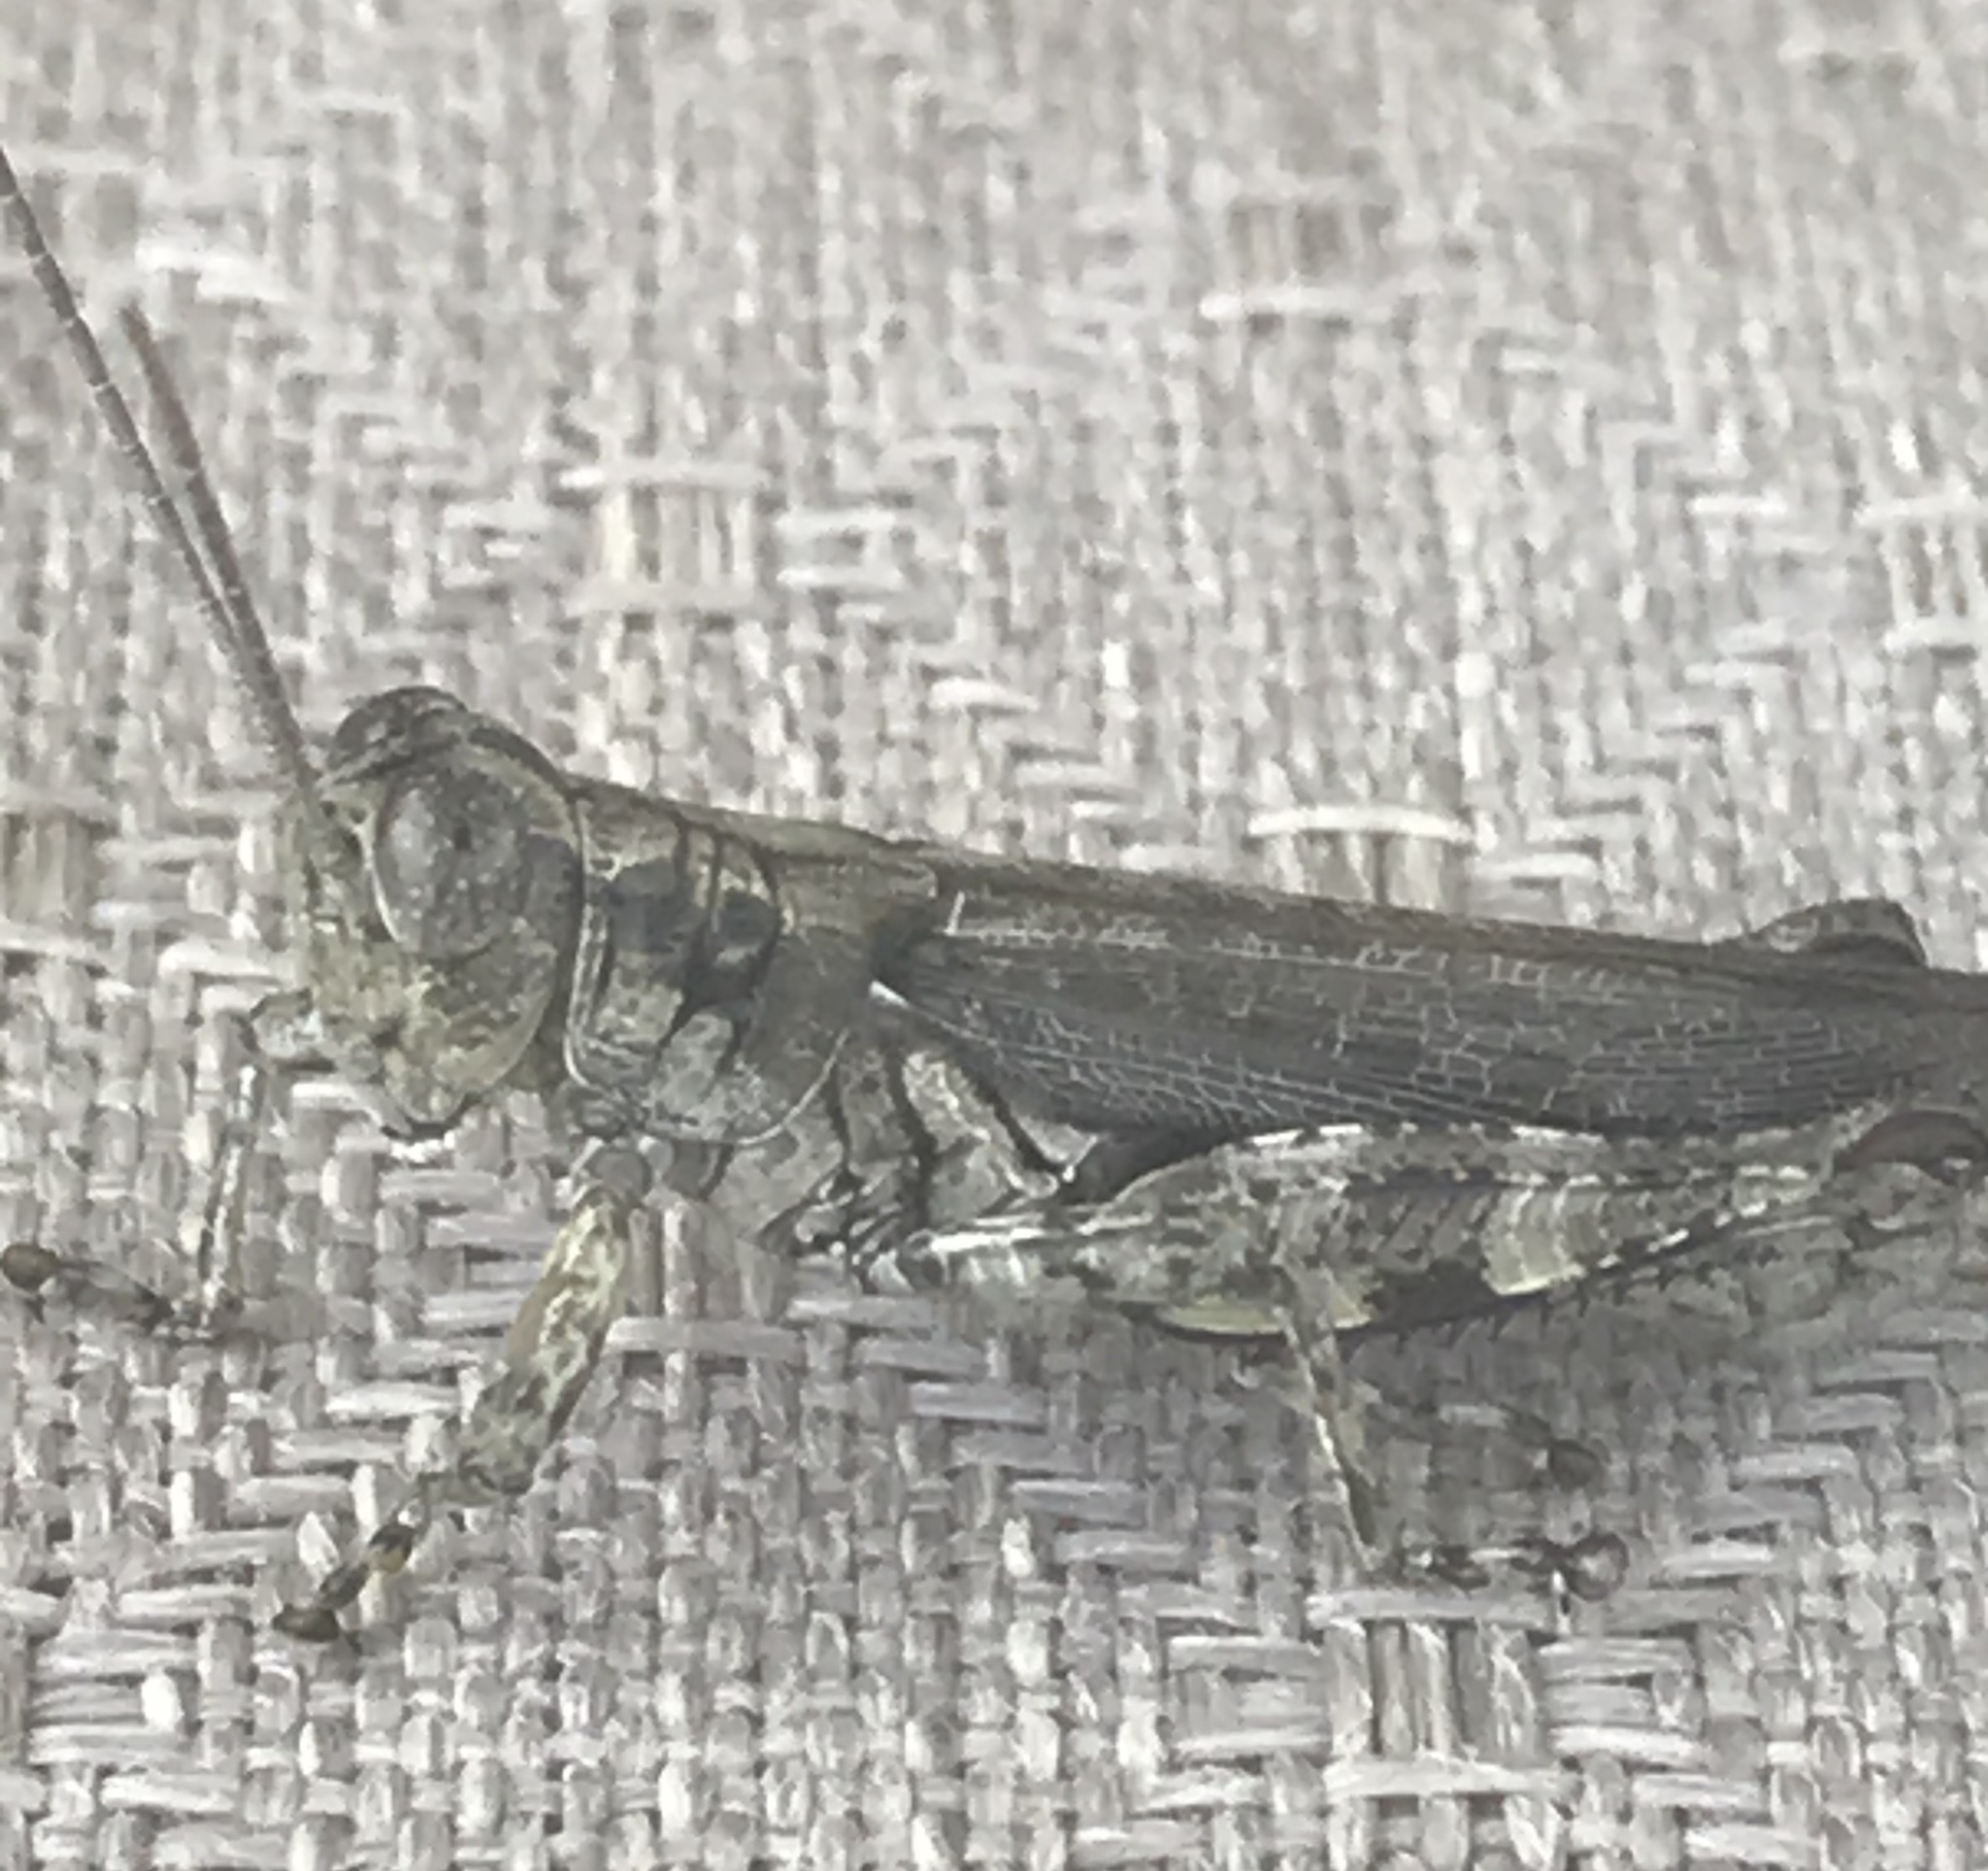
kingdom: Animalia
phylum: Arthropoda
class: Insecta
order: Orthoptera
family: Acrididae
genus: Melanoplus
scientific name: Melanoplus punctulatus
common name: Pine-tree spur-throat grasshopper
